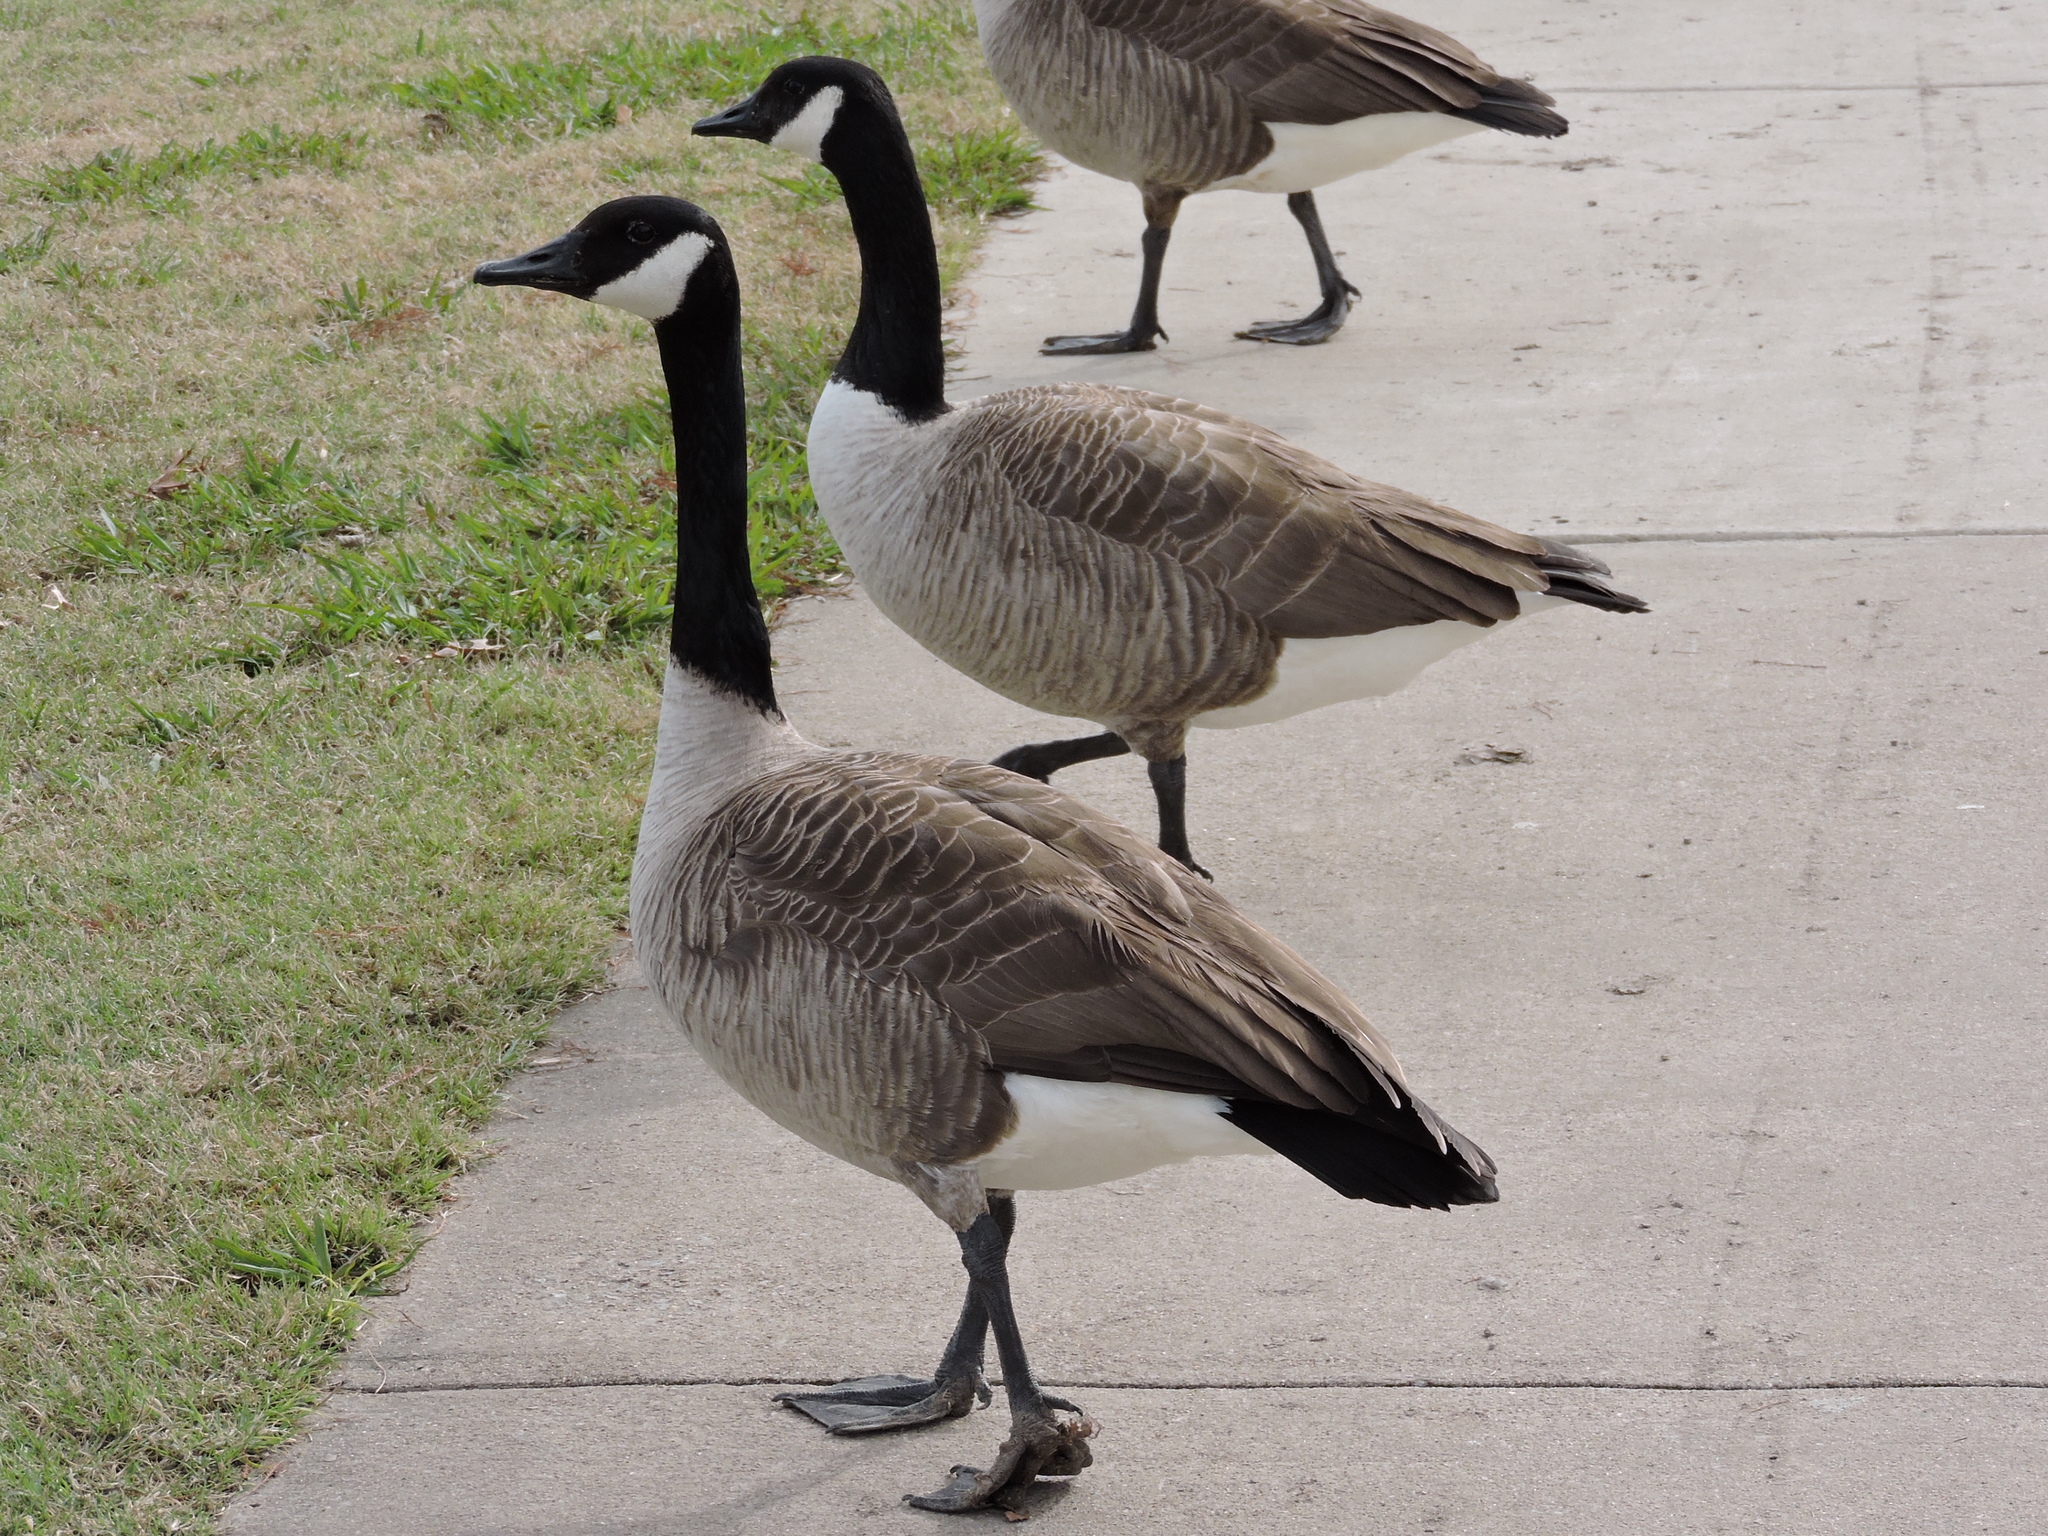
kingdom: Animalia
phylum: Chordata
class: Aves
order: Anseriformes
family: Anatidae
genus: Branta
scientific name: Branta canadensis
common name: Canada goose
